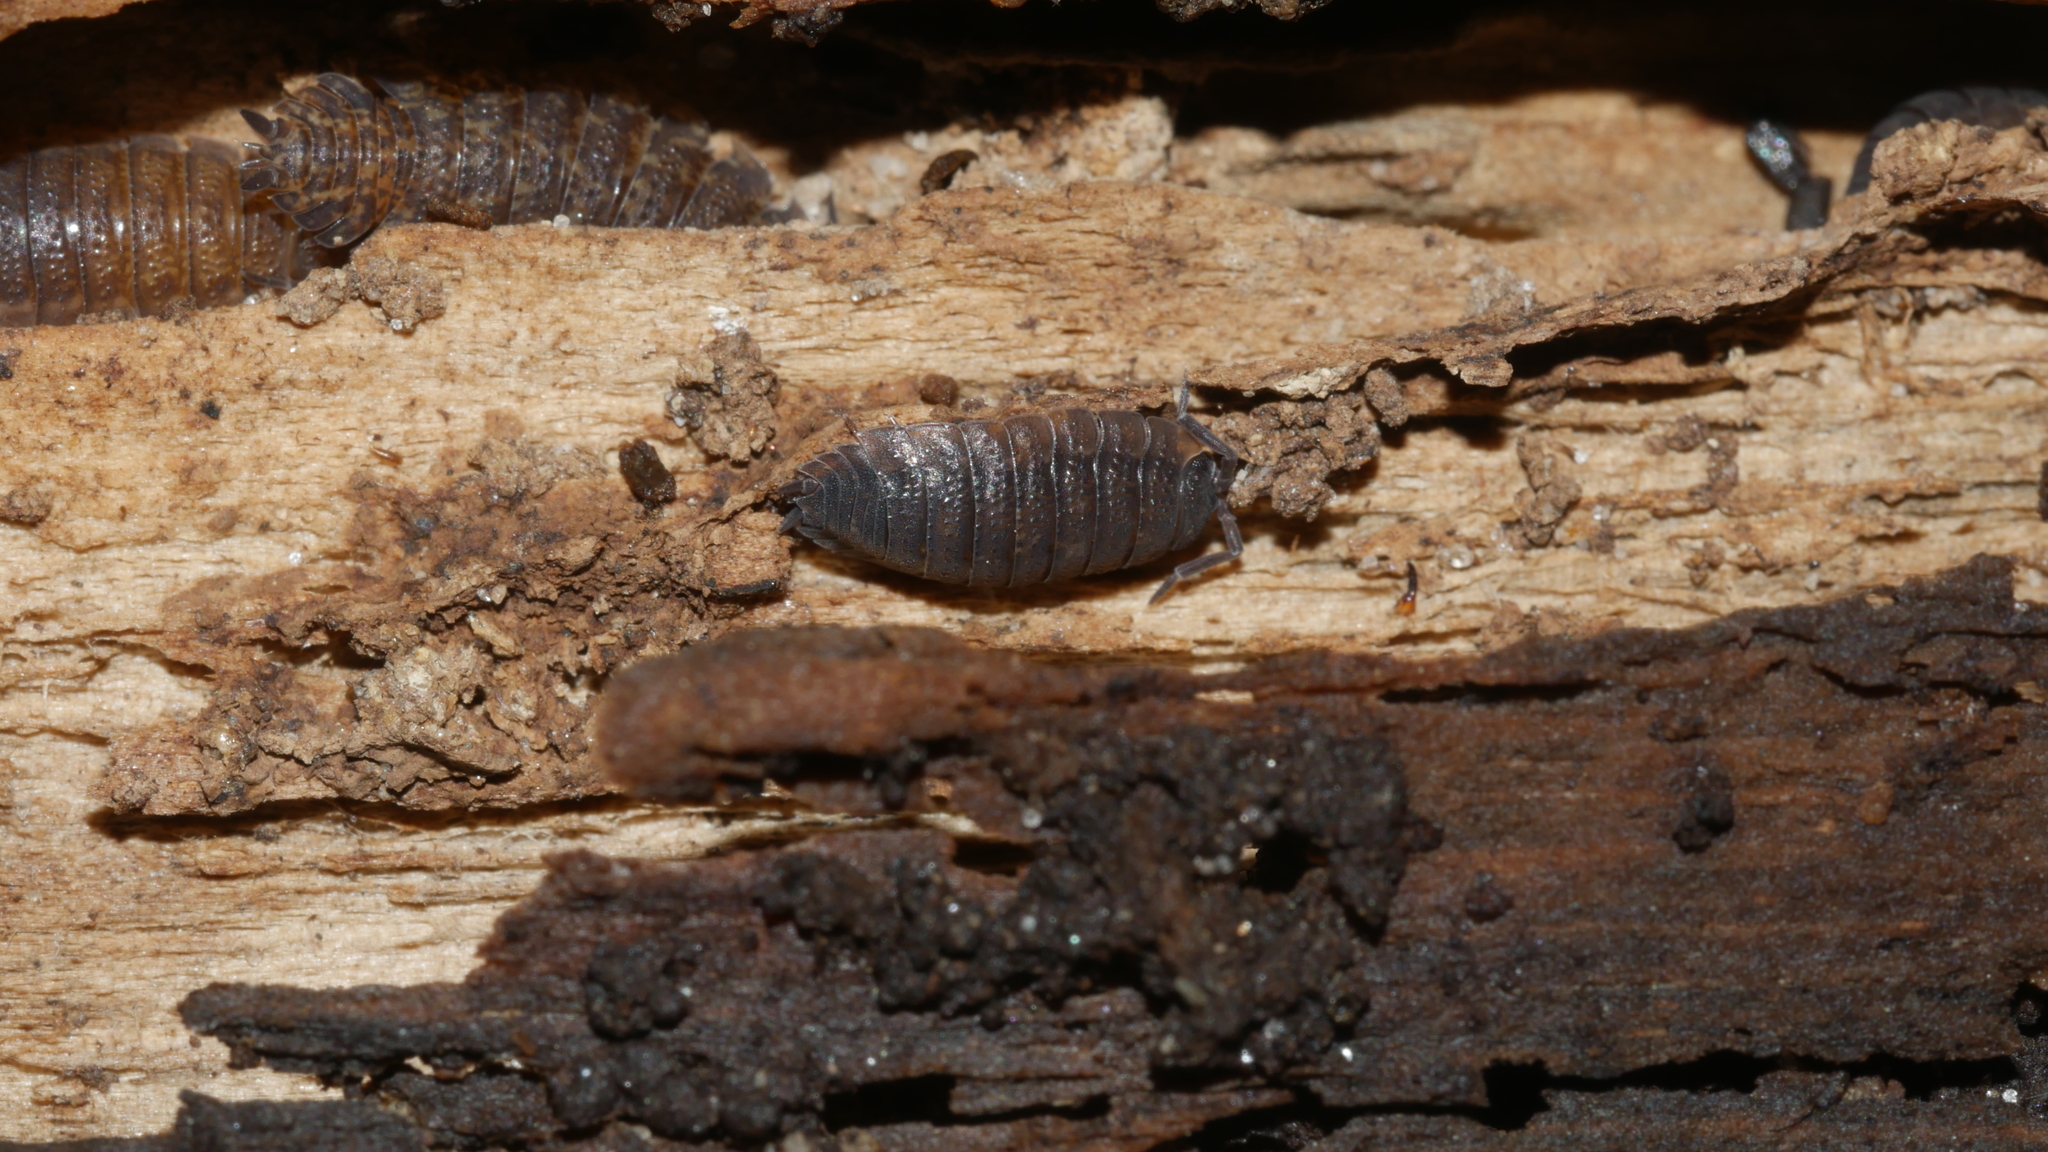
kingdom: Animalia
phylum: Arthropoda
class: Malacostraca
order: Isopoda
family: Porcellionidae
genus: Porcellio
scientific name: Porcellio scaber
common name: Common rough woodlouse
